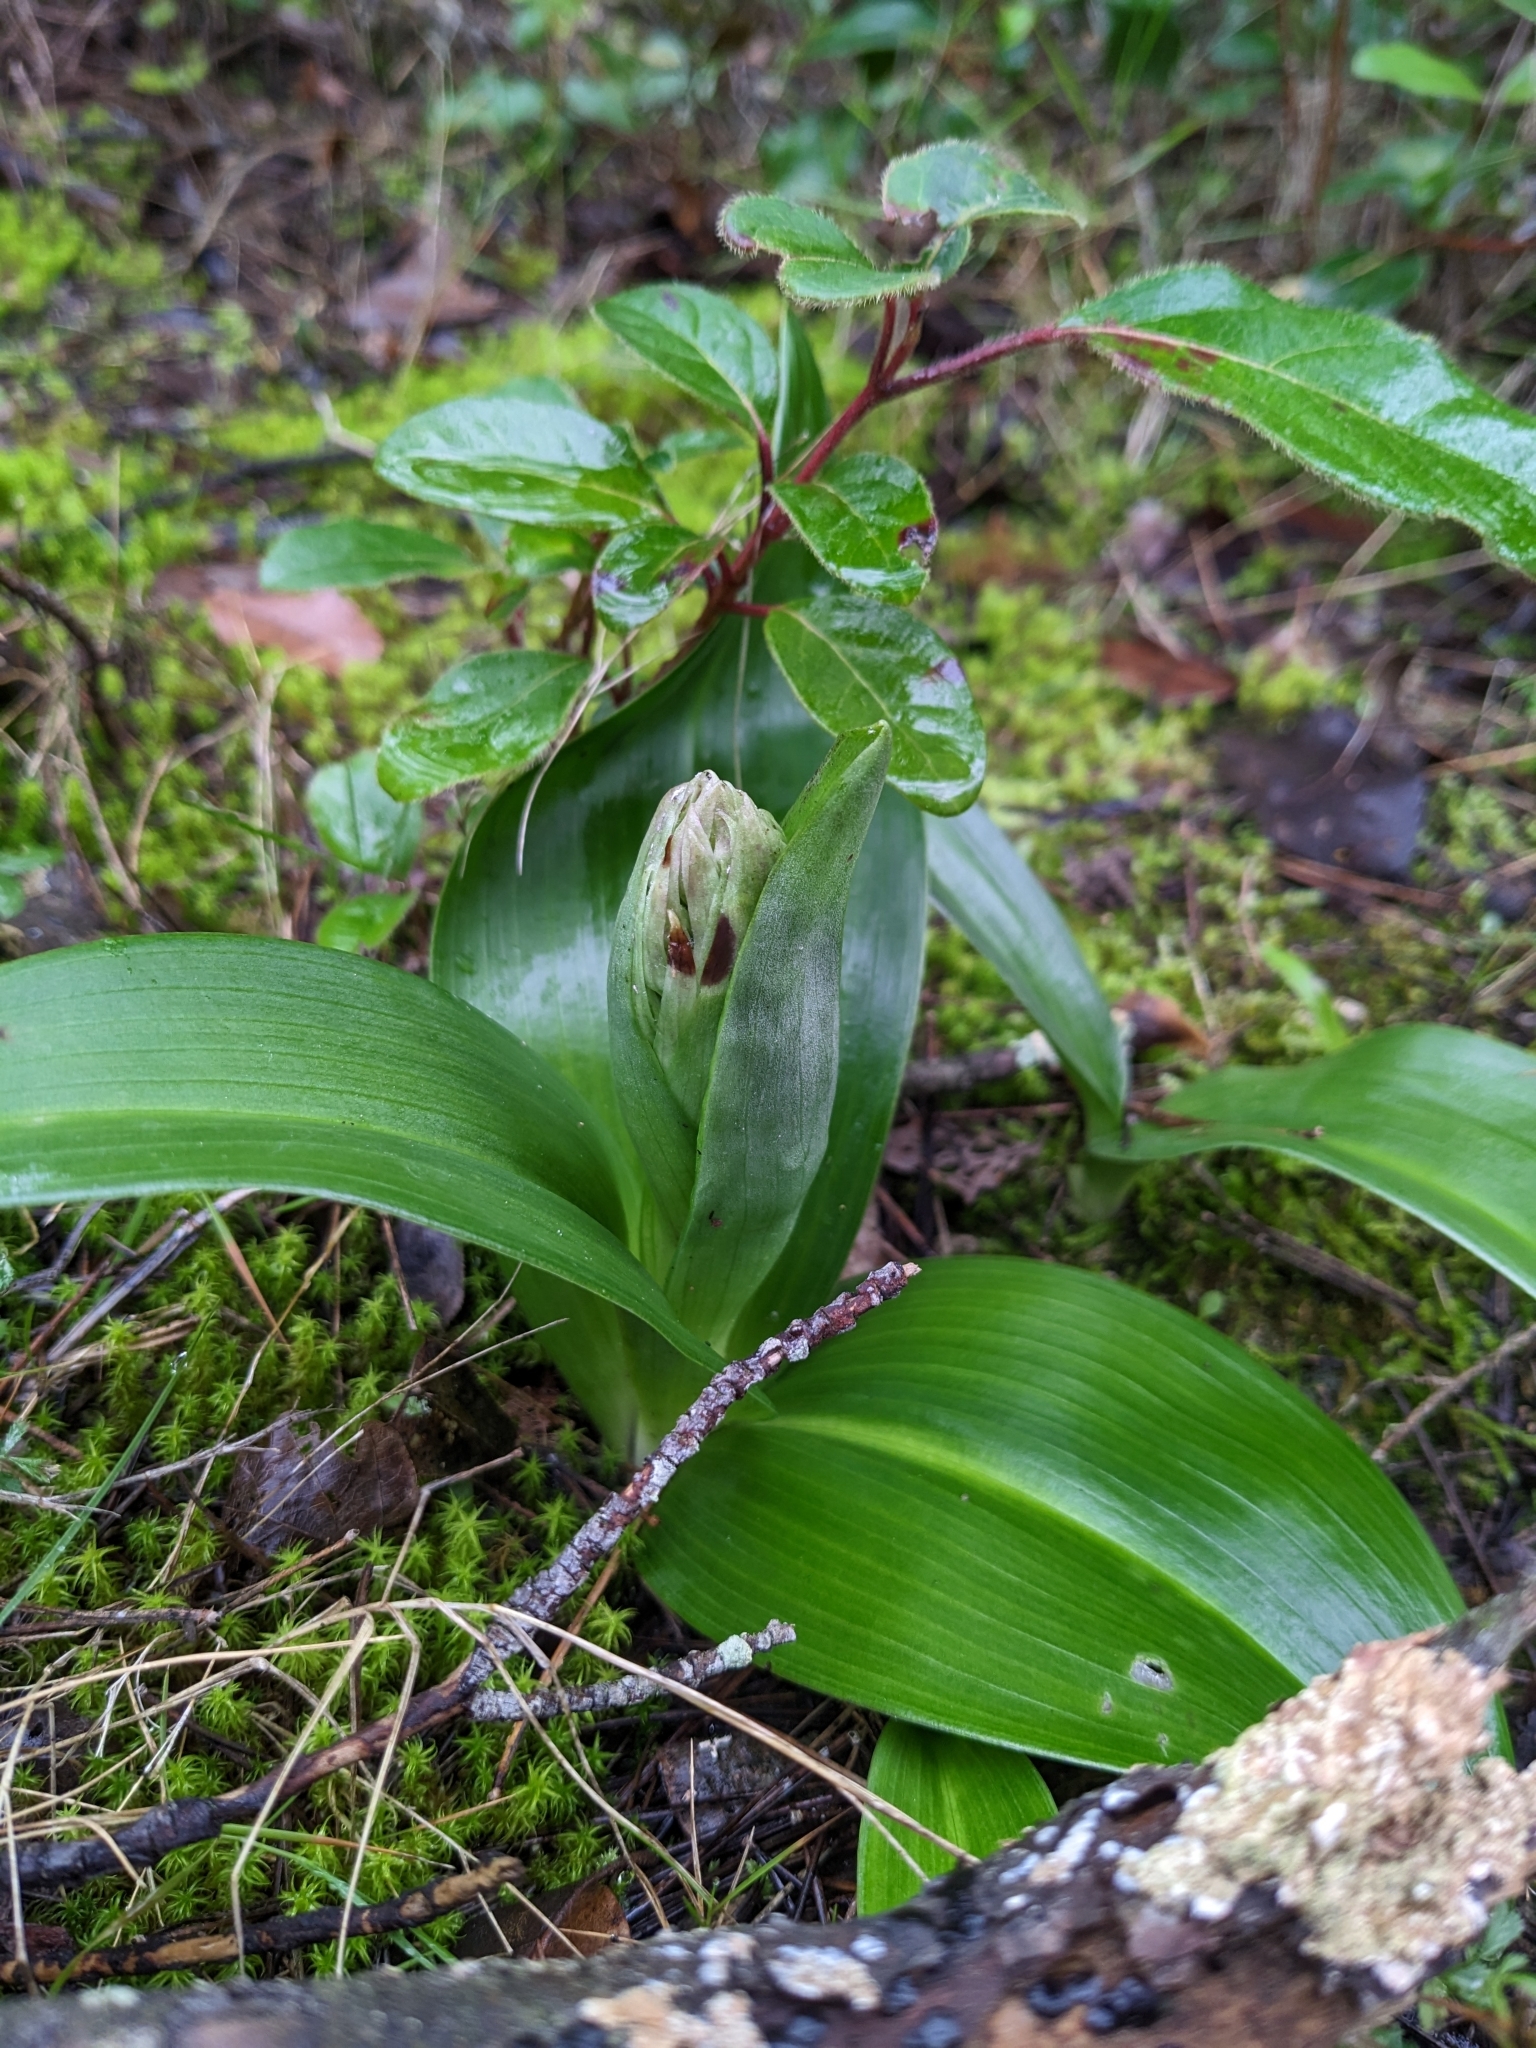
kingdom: Plantae
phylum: Tracheophyta
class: Liliopsida
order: Asparagales
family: Orchidaceae
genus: Himantoglossum
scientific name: Himantoglossum robertianum
